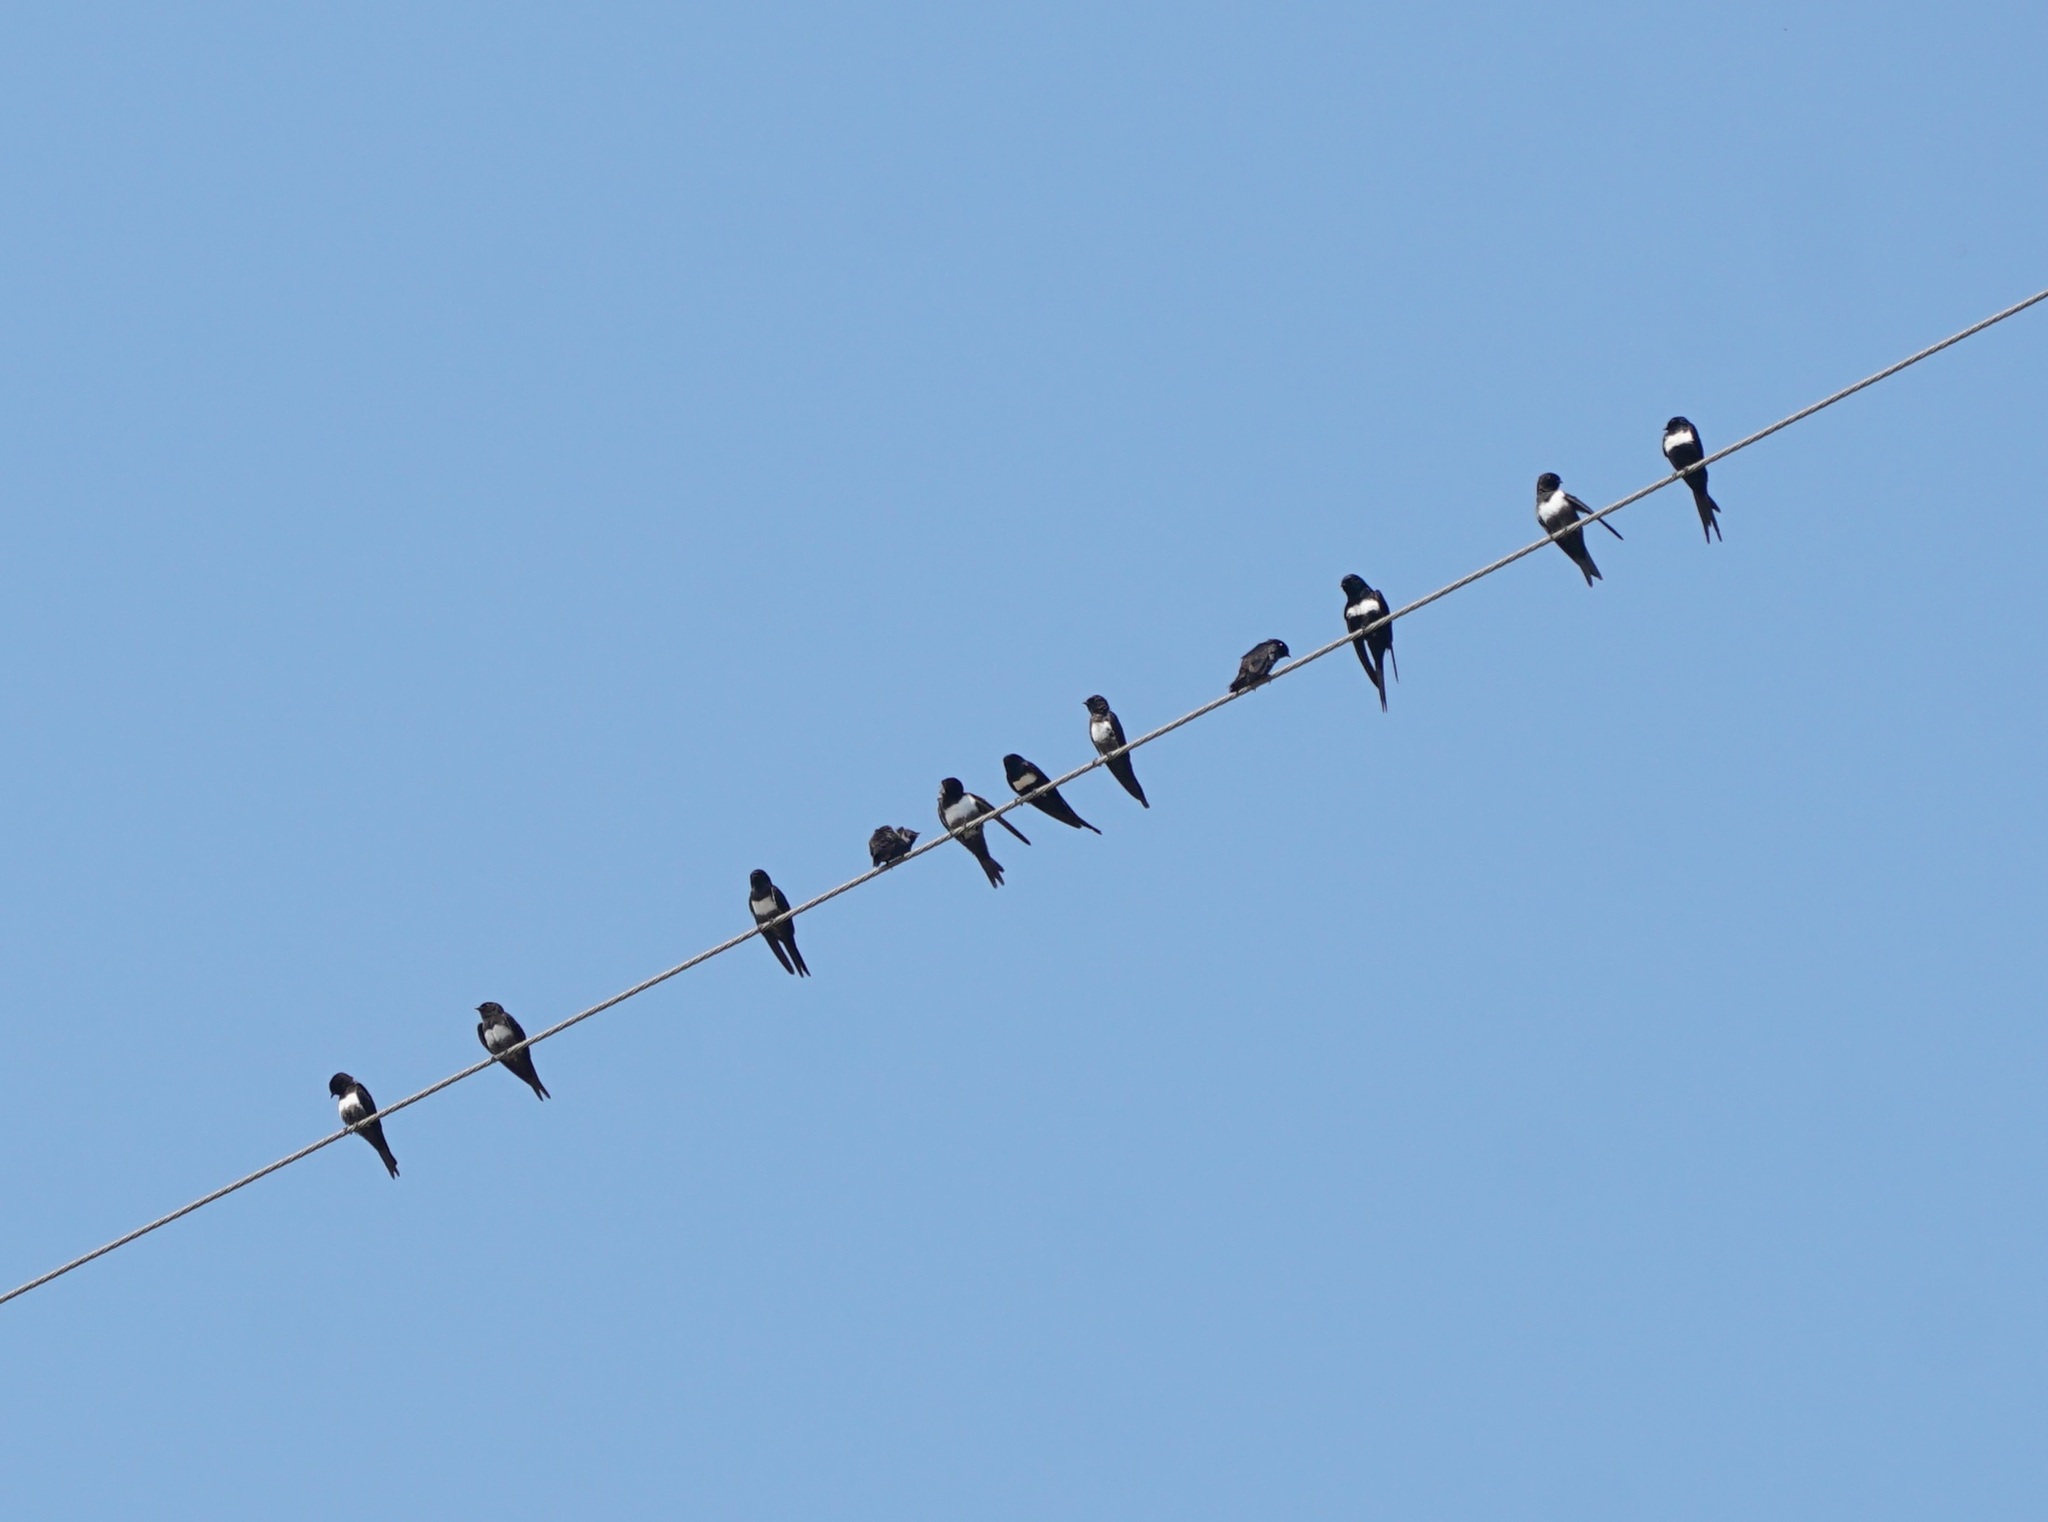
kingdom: Animalia
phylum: Chordata
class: Aves
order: Passeriformes
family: Hirundinidae
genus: Atticora
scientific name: Atticora fasciata
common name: White-banded swallow
